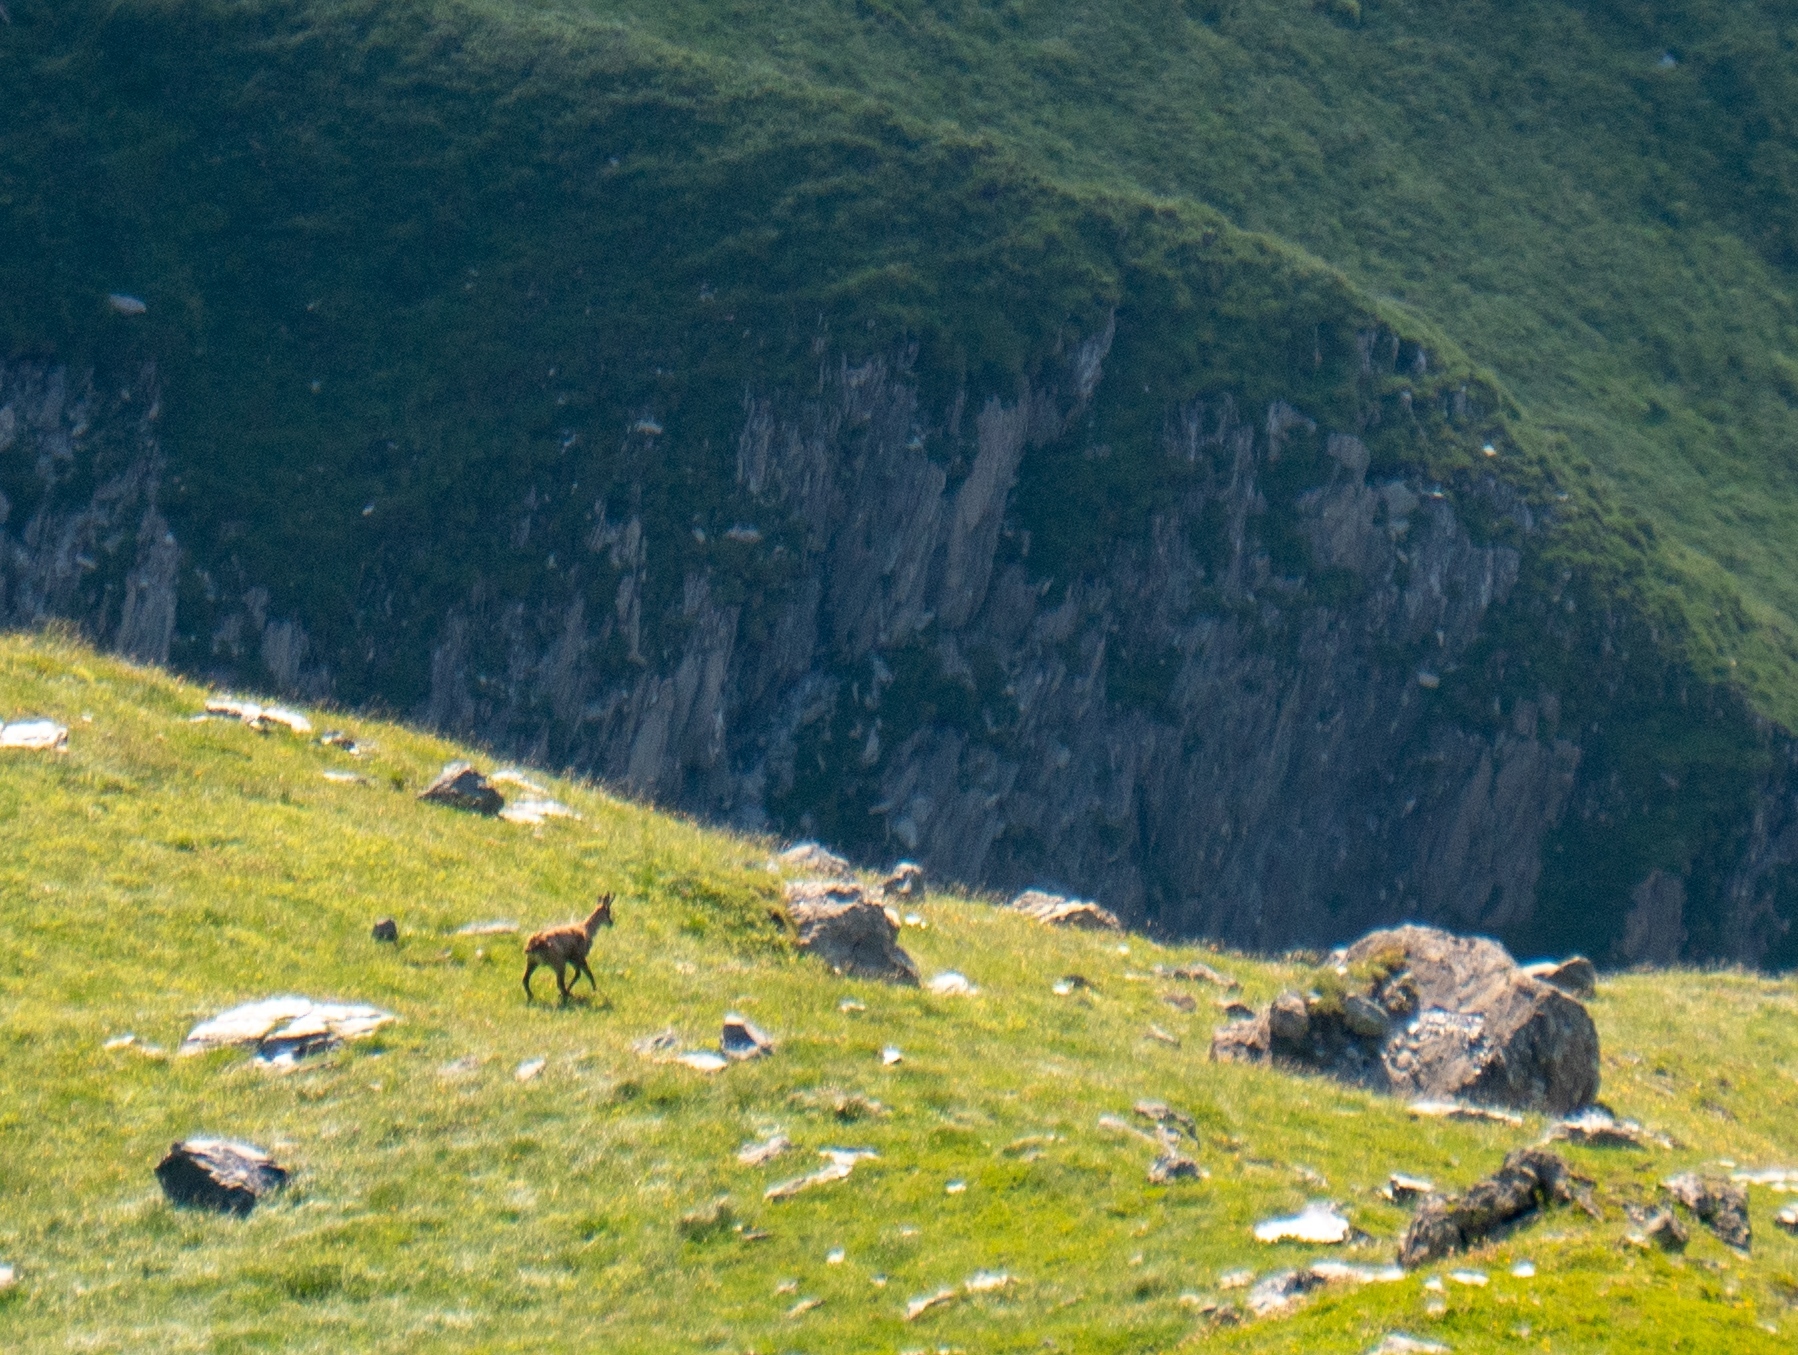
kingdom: Animalia
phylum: Chordata
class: Mammalia
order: Artiodactyla
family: Bovidae
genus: Rupicapra
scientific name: Rupicapra rupicapra
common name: Chamois
